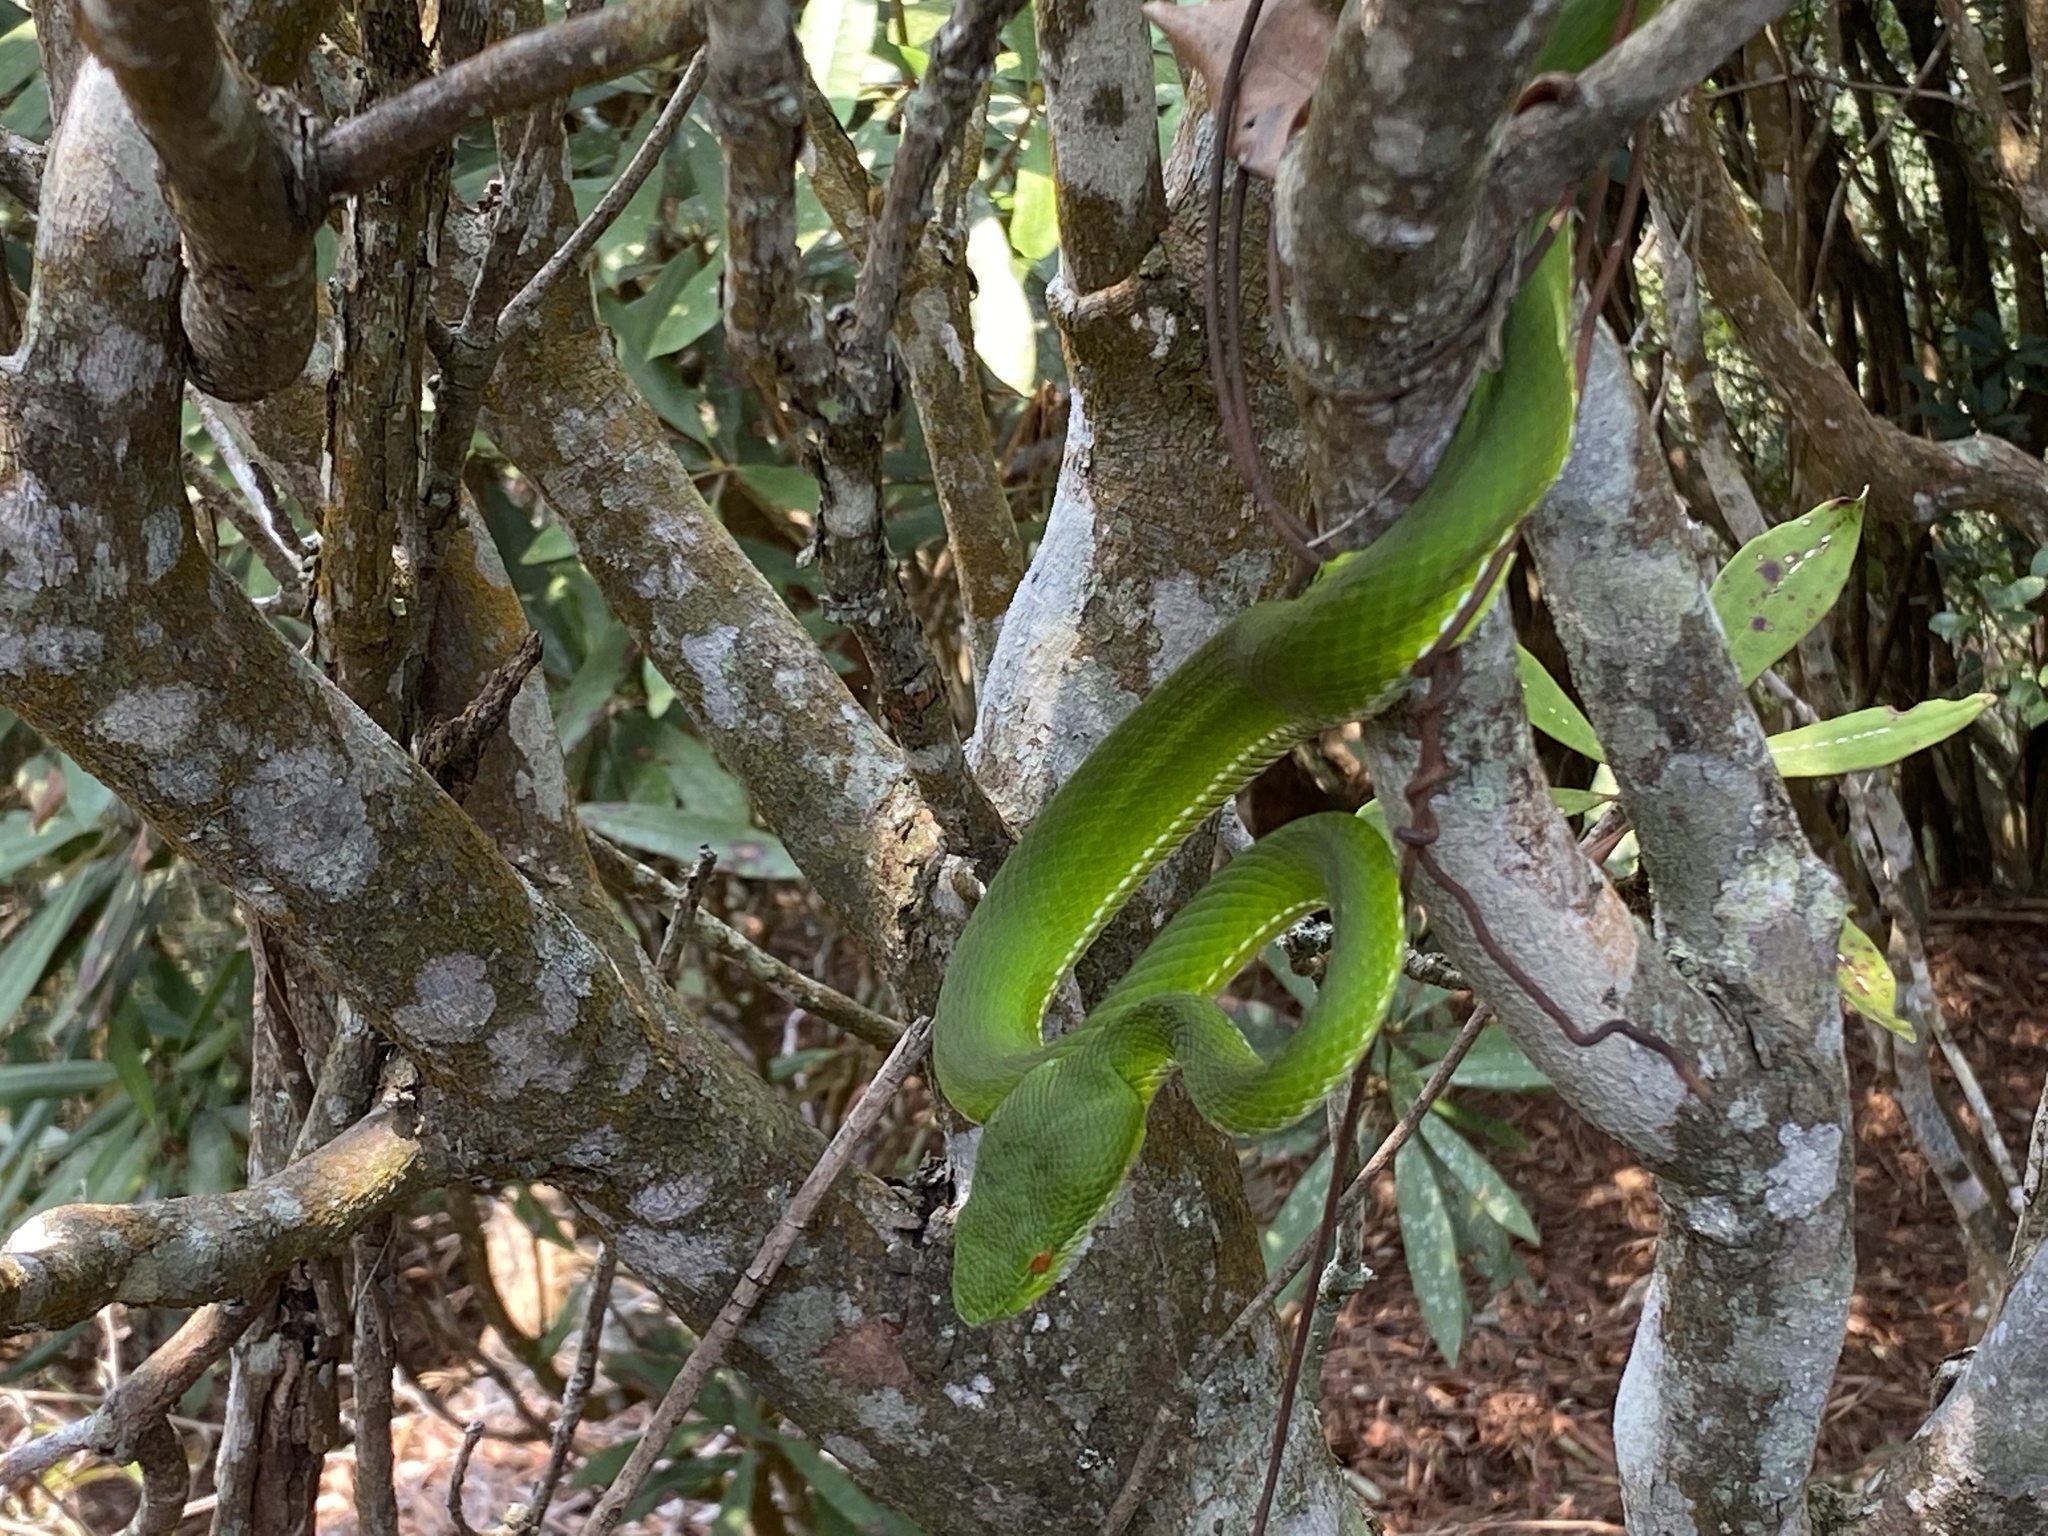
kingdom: Animalia
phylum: Chordata
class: Squamata
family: Viperidae
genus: Trimeresurus
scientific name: Trimeresurus stejnegeri
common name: Chen’s bamboo pit viper
